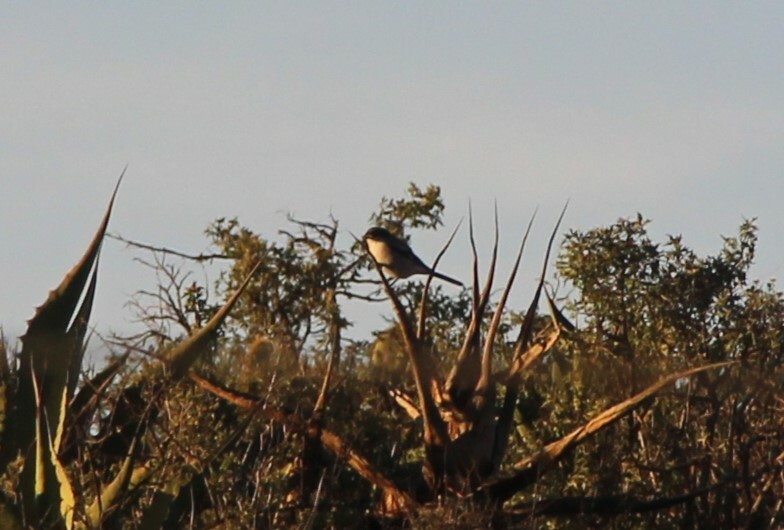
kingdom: Animalia
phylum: Chordata
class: Aves
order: Passeriformes
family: Laniidae
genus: Lanius
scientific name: Lanius ludovicianus
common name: Loggerhead shrike
